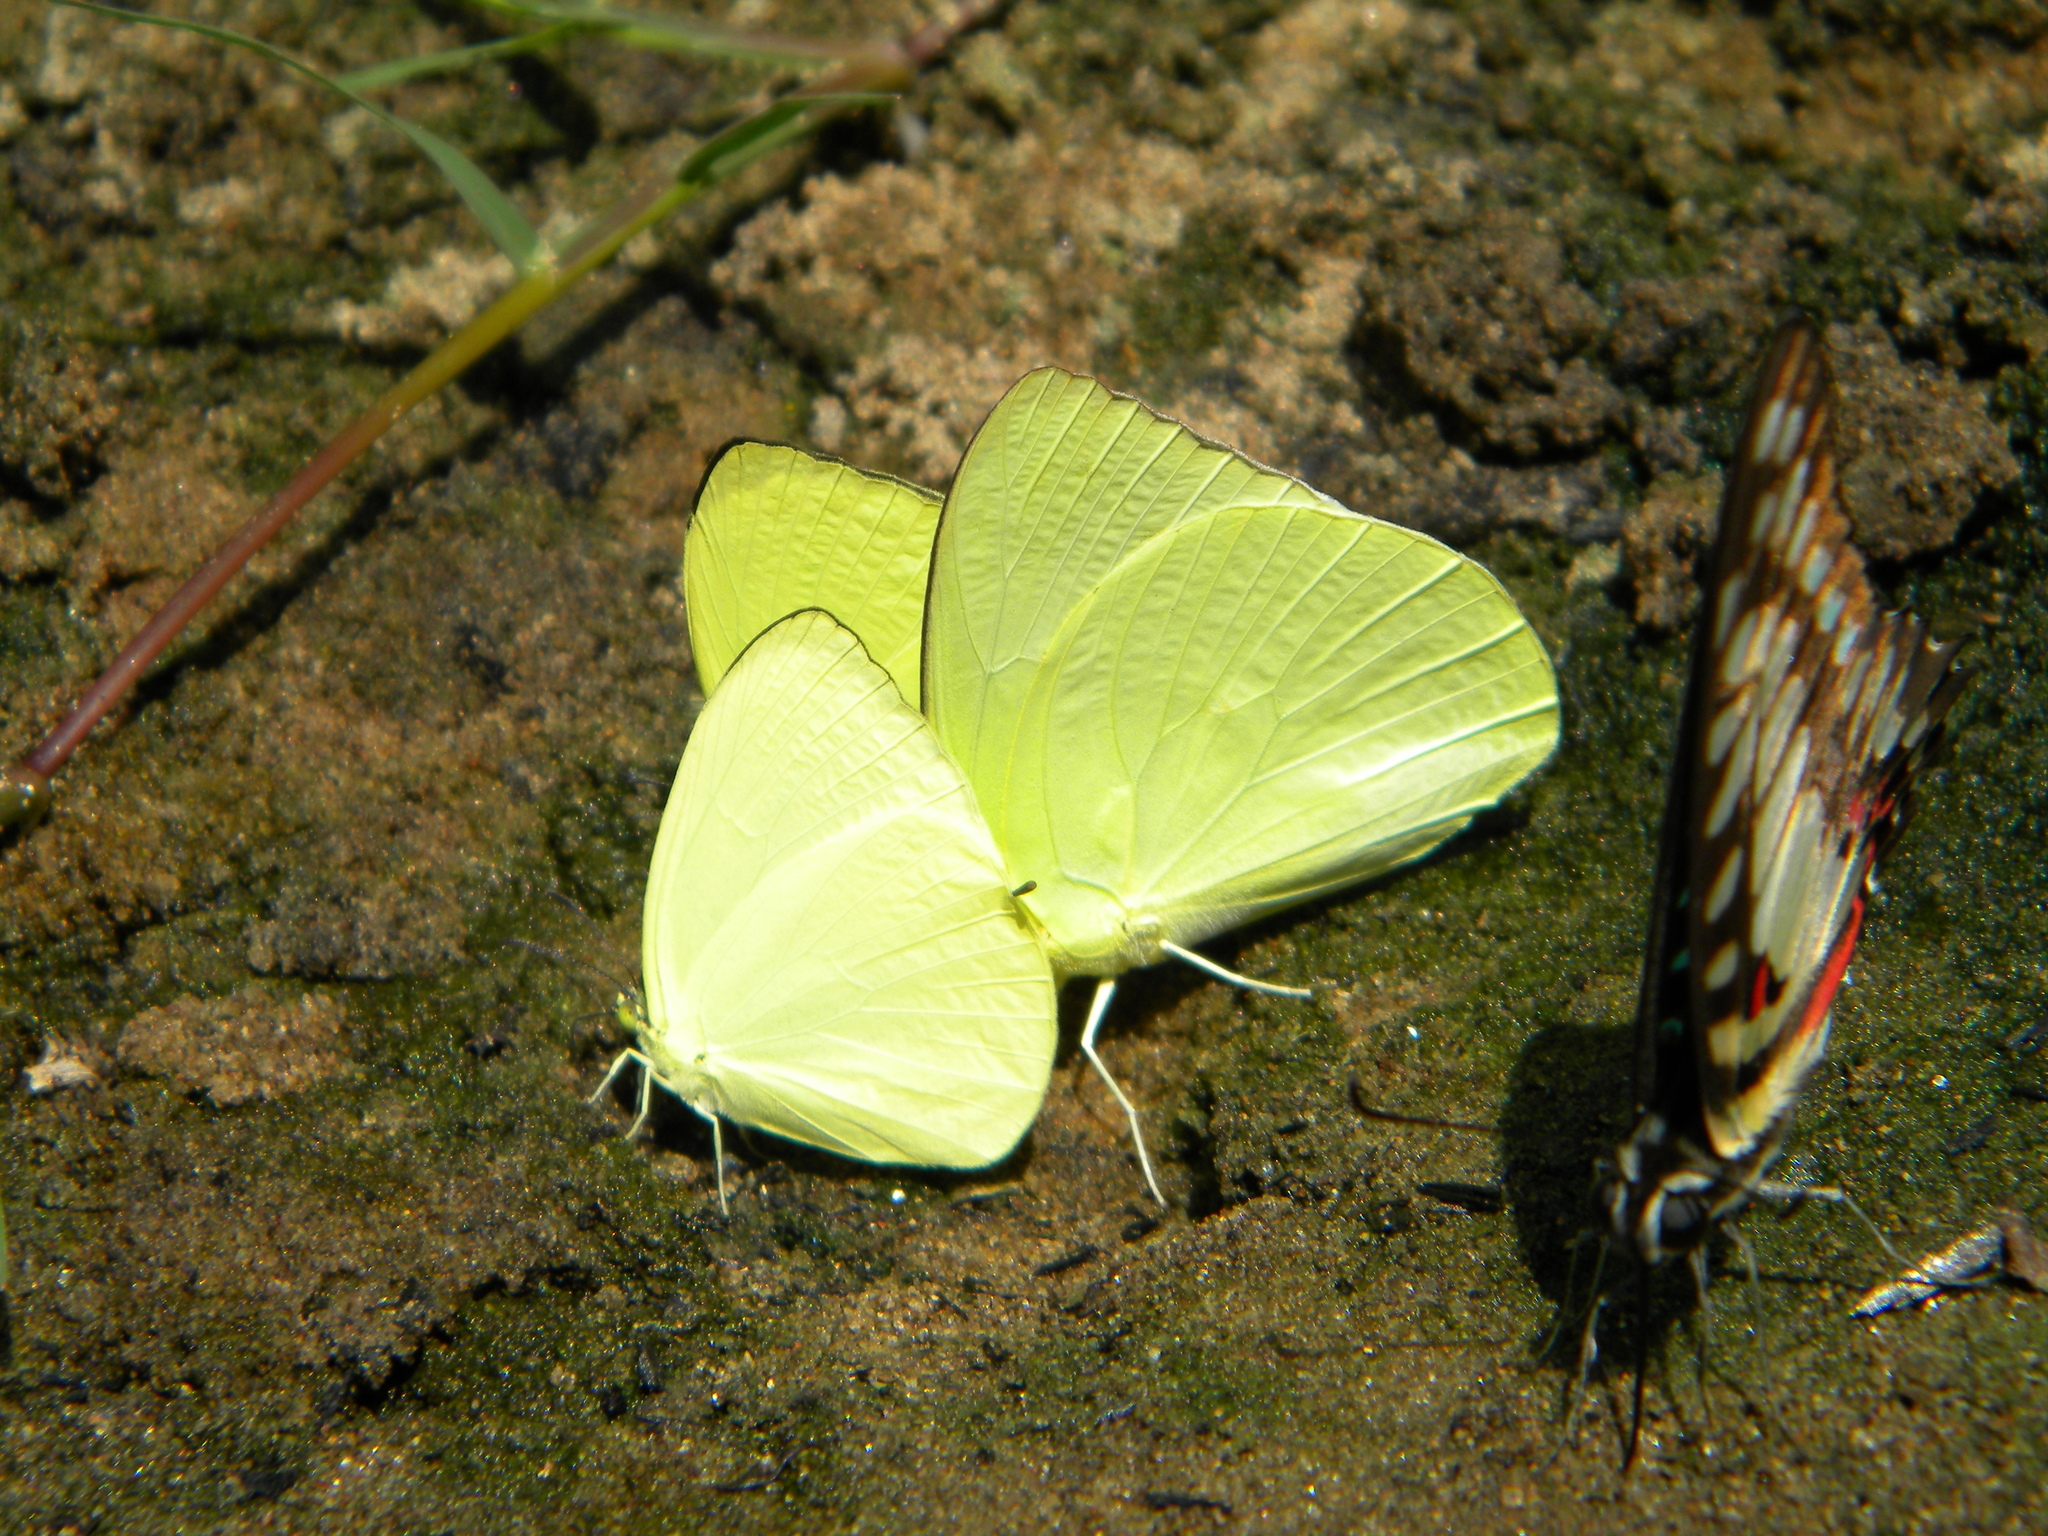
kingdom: Animalia
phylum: Arthropoda
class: Insecta
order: Lepidoptera
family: Pieridae
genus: Catopsilia
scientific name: Catopsilia pomona
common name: Common emigrant
